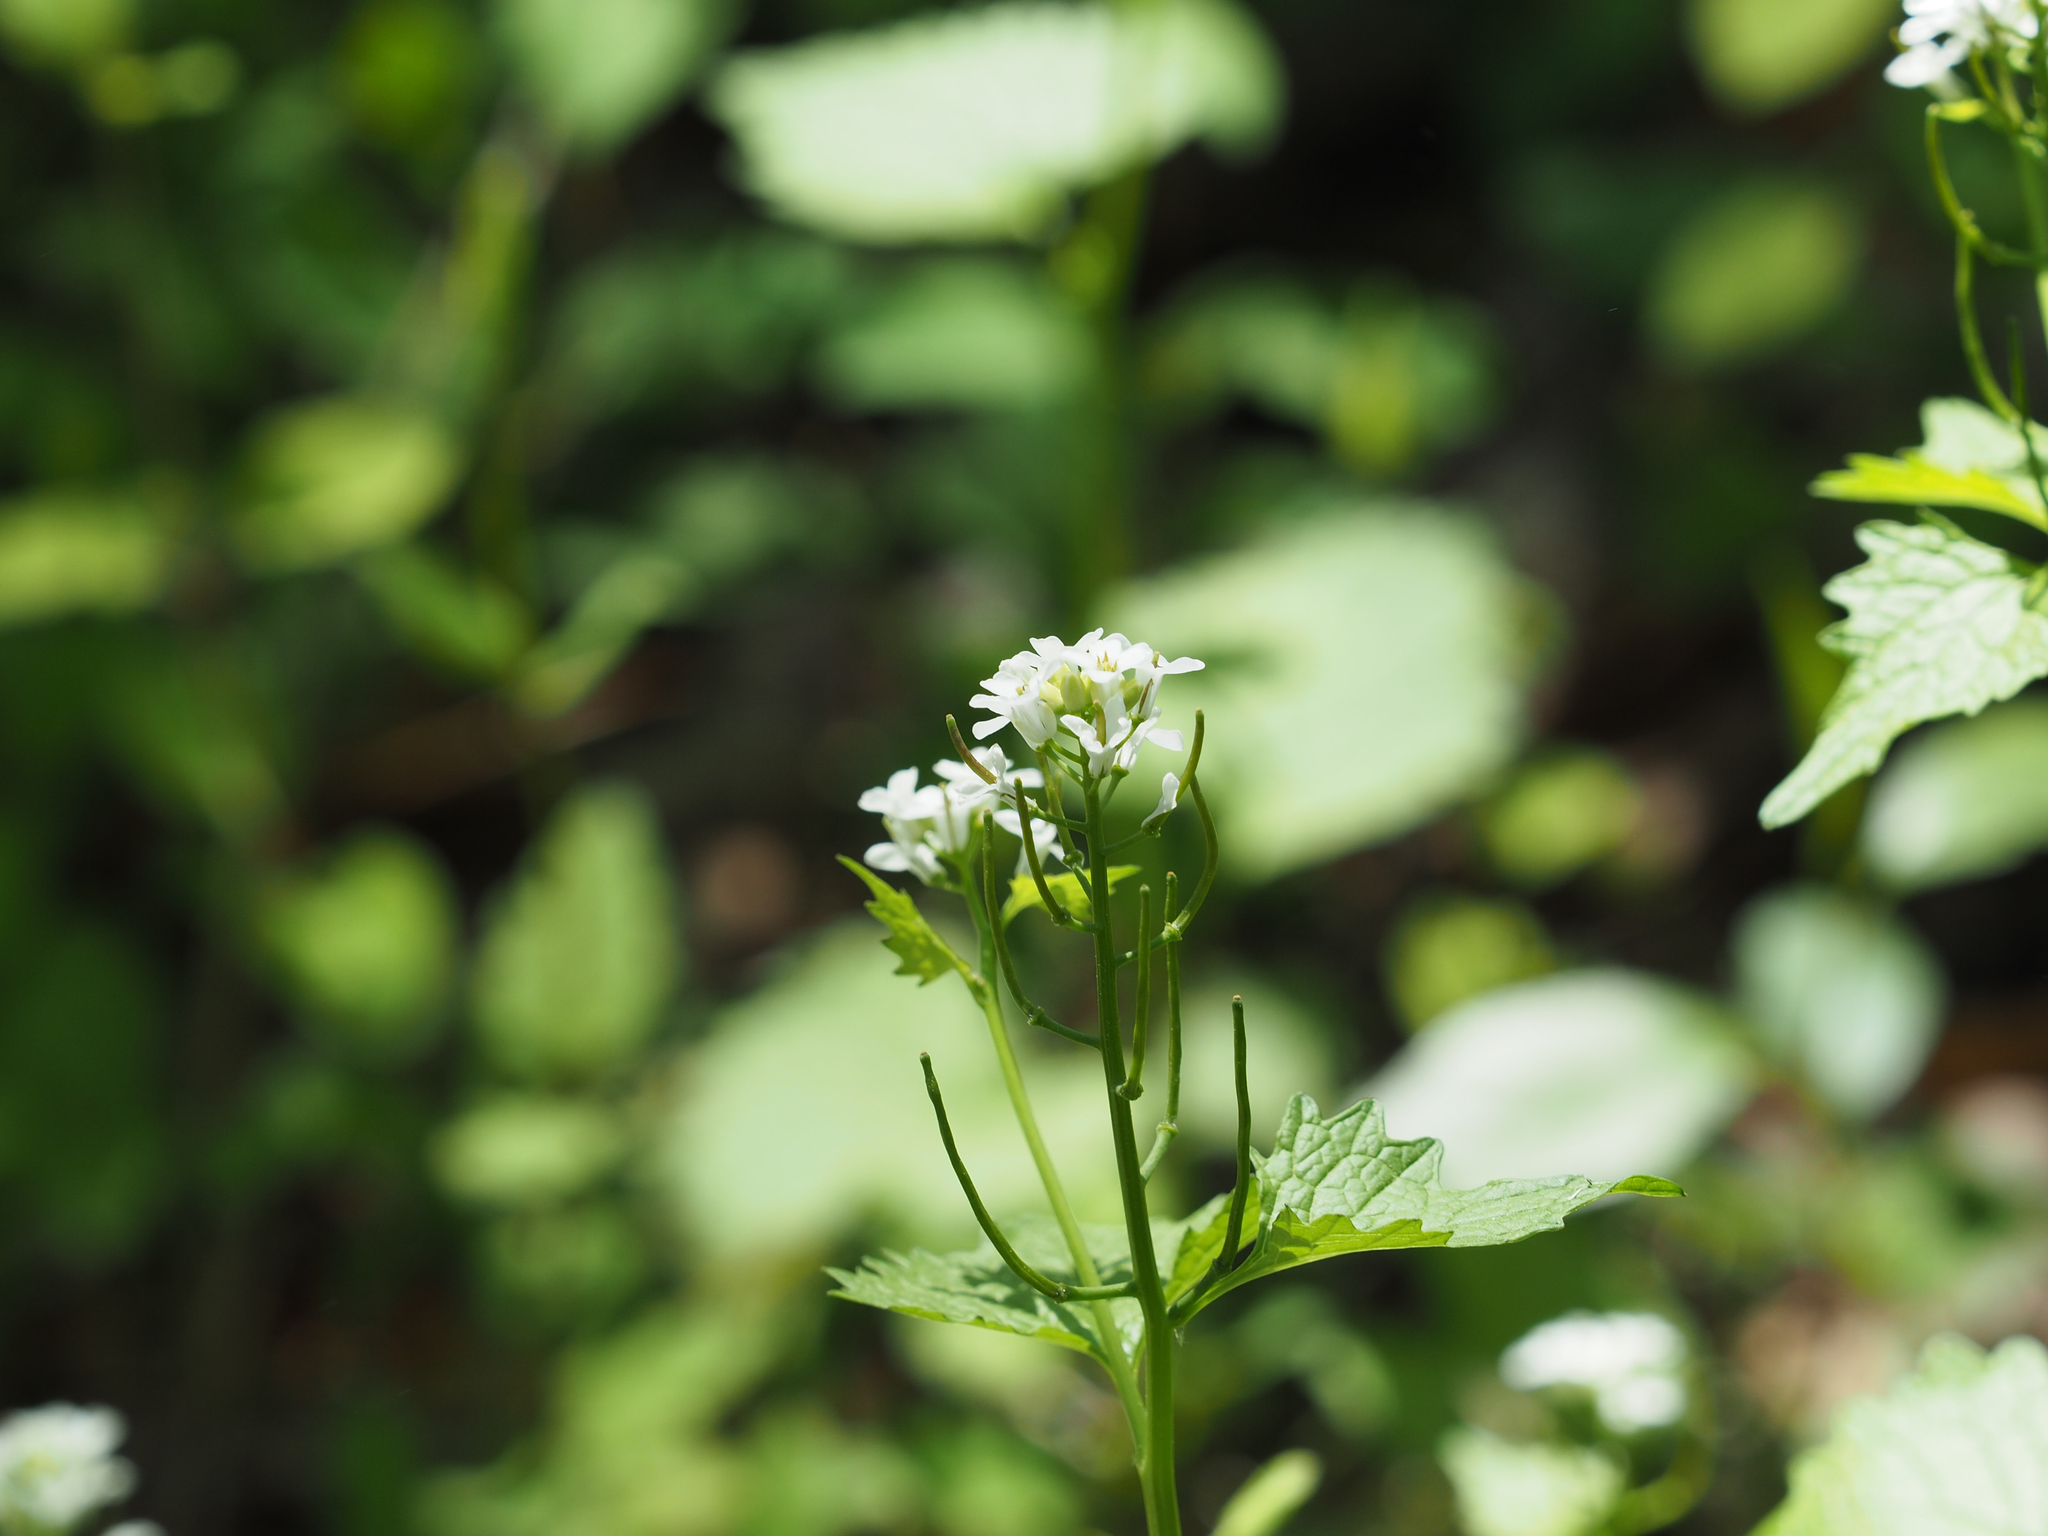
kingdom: Plantae
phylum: Tracheophyta
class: Magnoliopsida
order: Brassicales
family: Brassicaceae
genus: Alliaria
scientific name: Alliaria petiolata
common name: Garlic mustard
